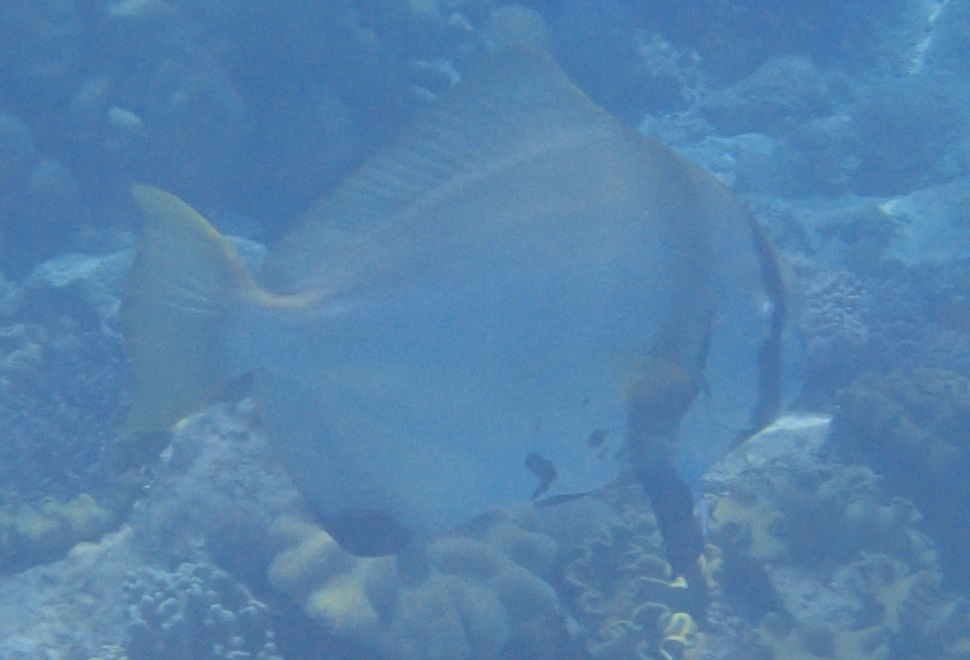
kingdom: Animalia
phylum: Chordata
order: Perciformes
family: Ephippidae
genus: Platax
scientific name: Platax batavianus
